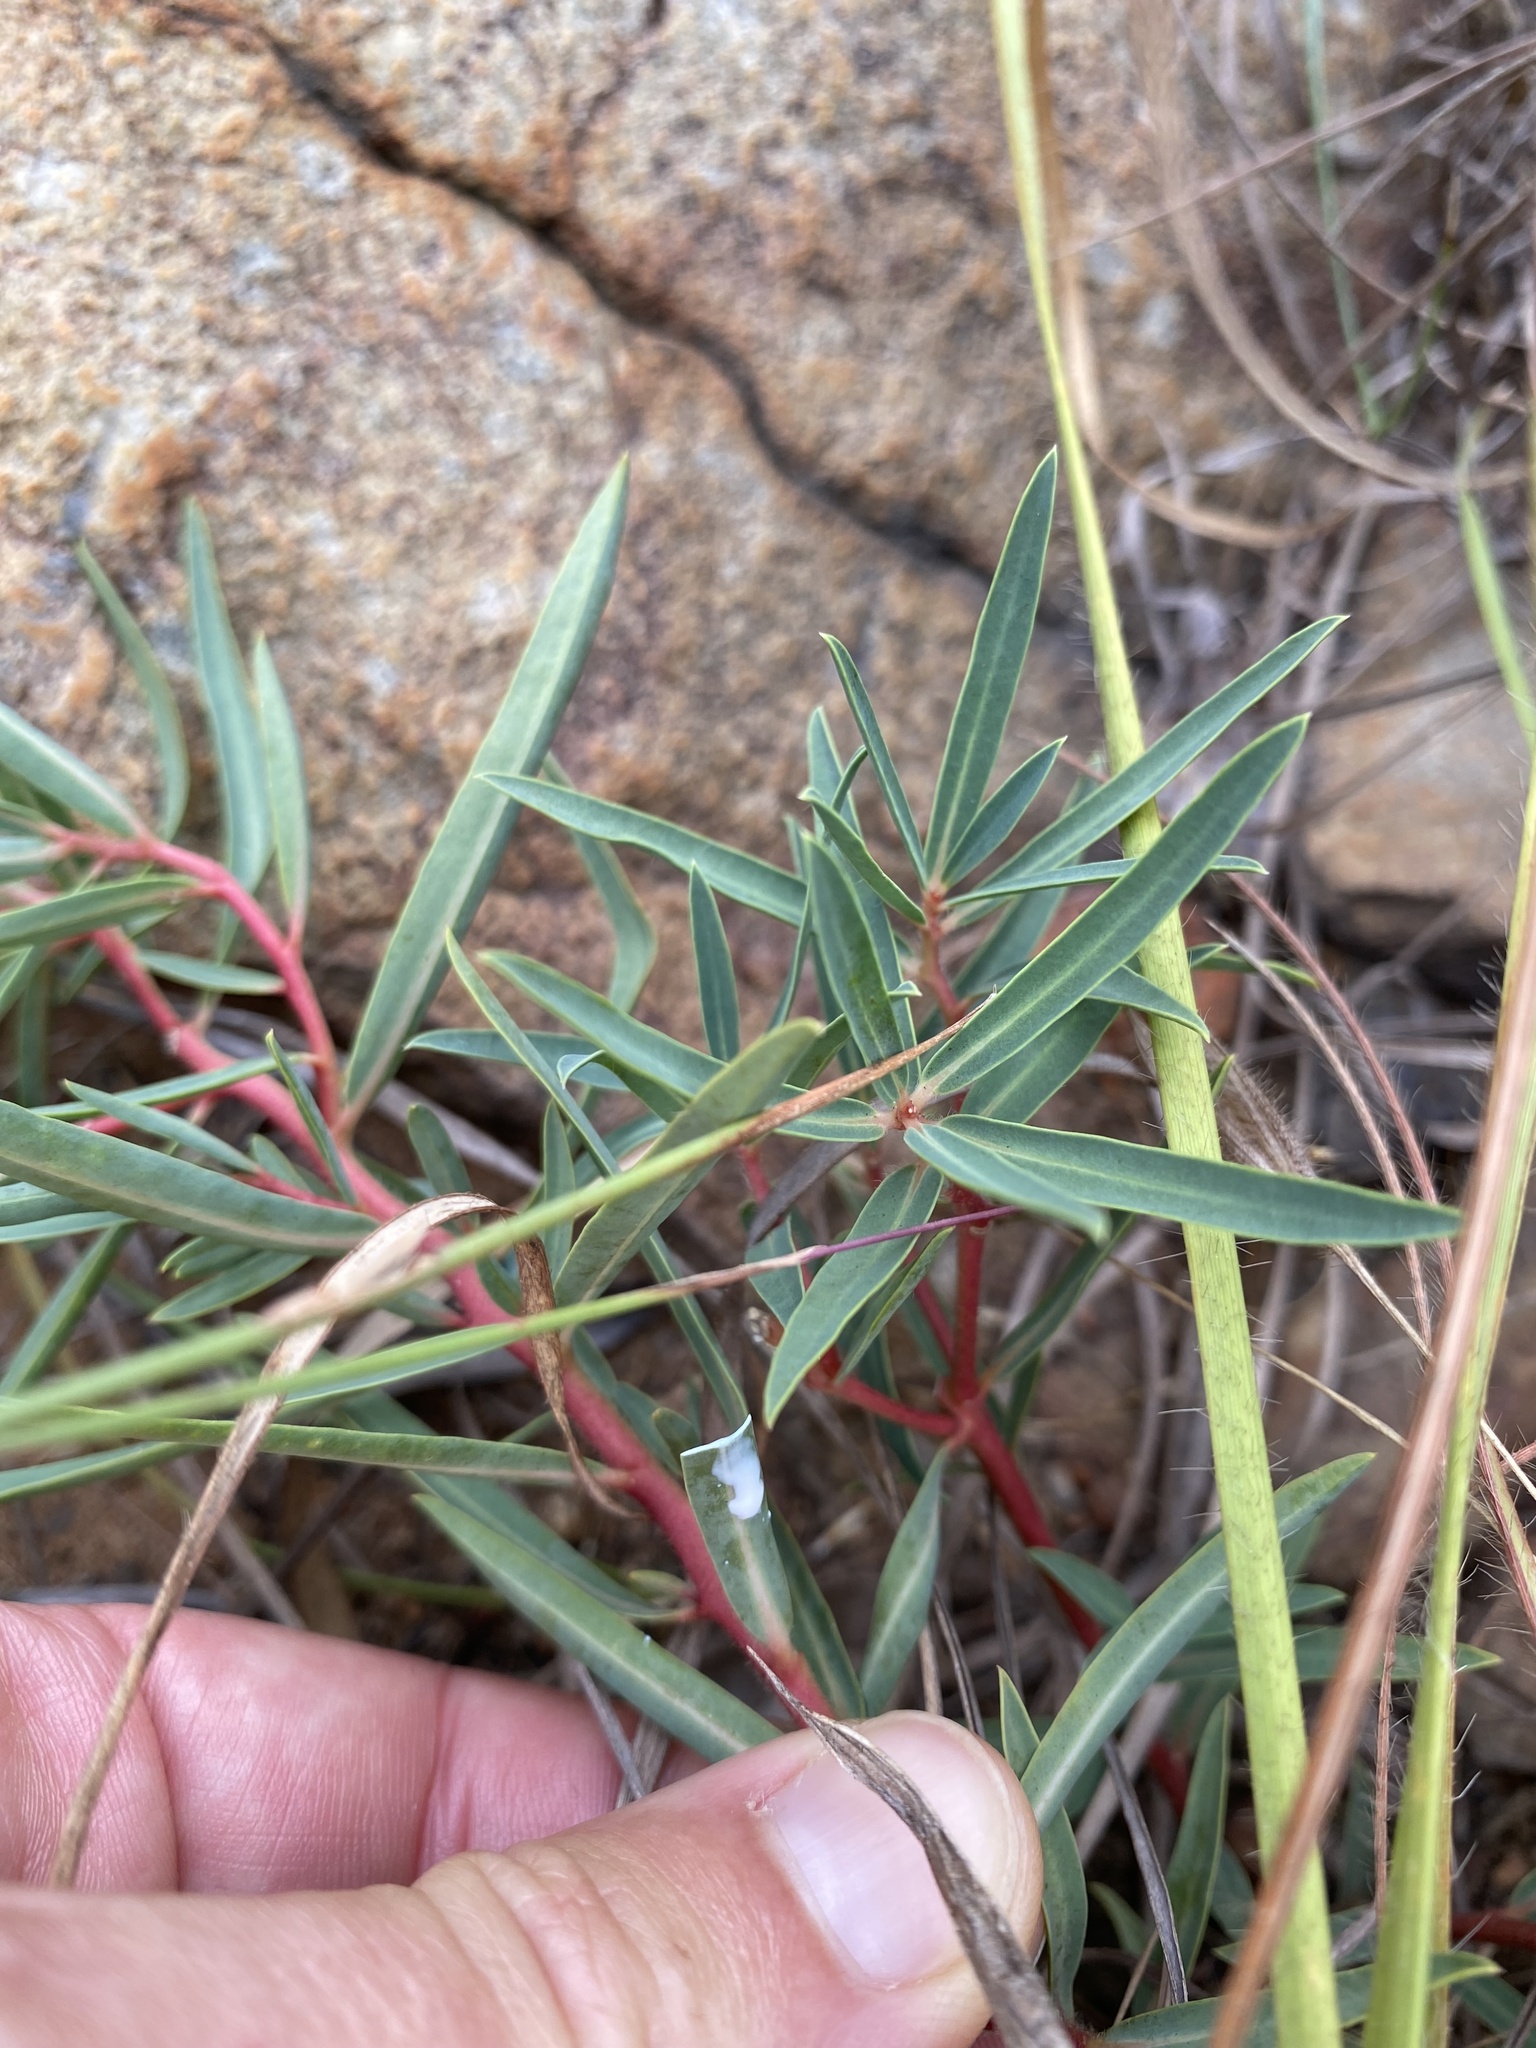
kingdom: Plantae
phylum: Tracheophyta
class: Magnoliopsida
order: Malpighiales
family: Euphorbiaceae
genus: Euphorbia
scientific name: Euphorbia gueinzii
